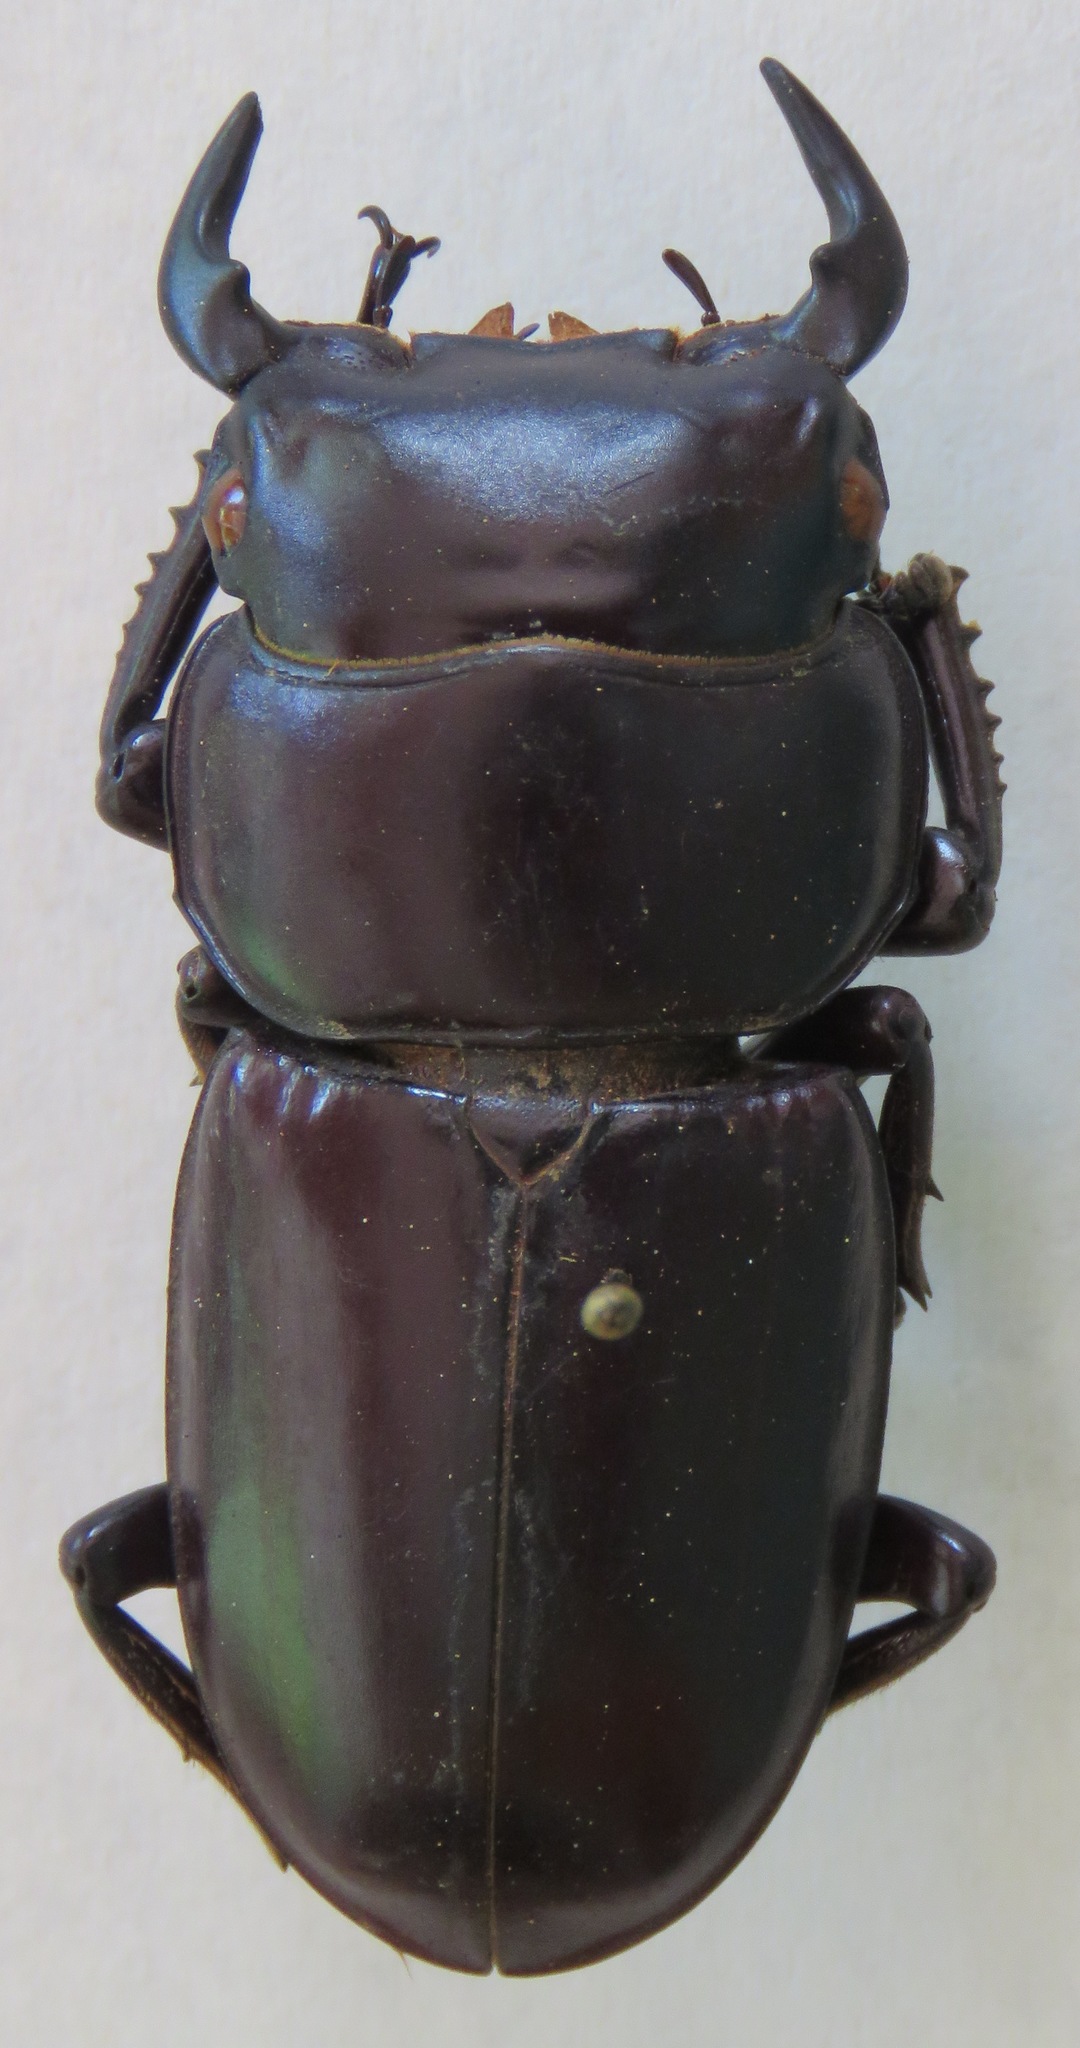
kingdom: Animalia
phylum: Arthropoda
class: Insecta
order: Coleoptera
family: Lucanidae
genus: Dorcus
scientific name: Dorcus antaeus
